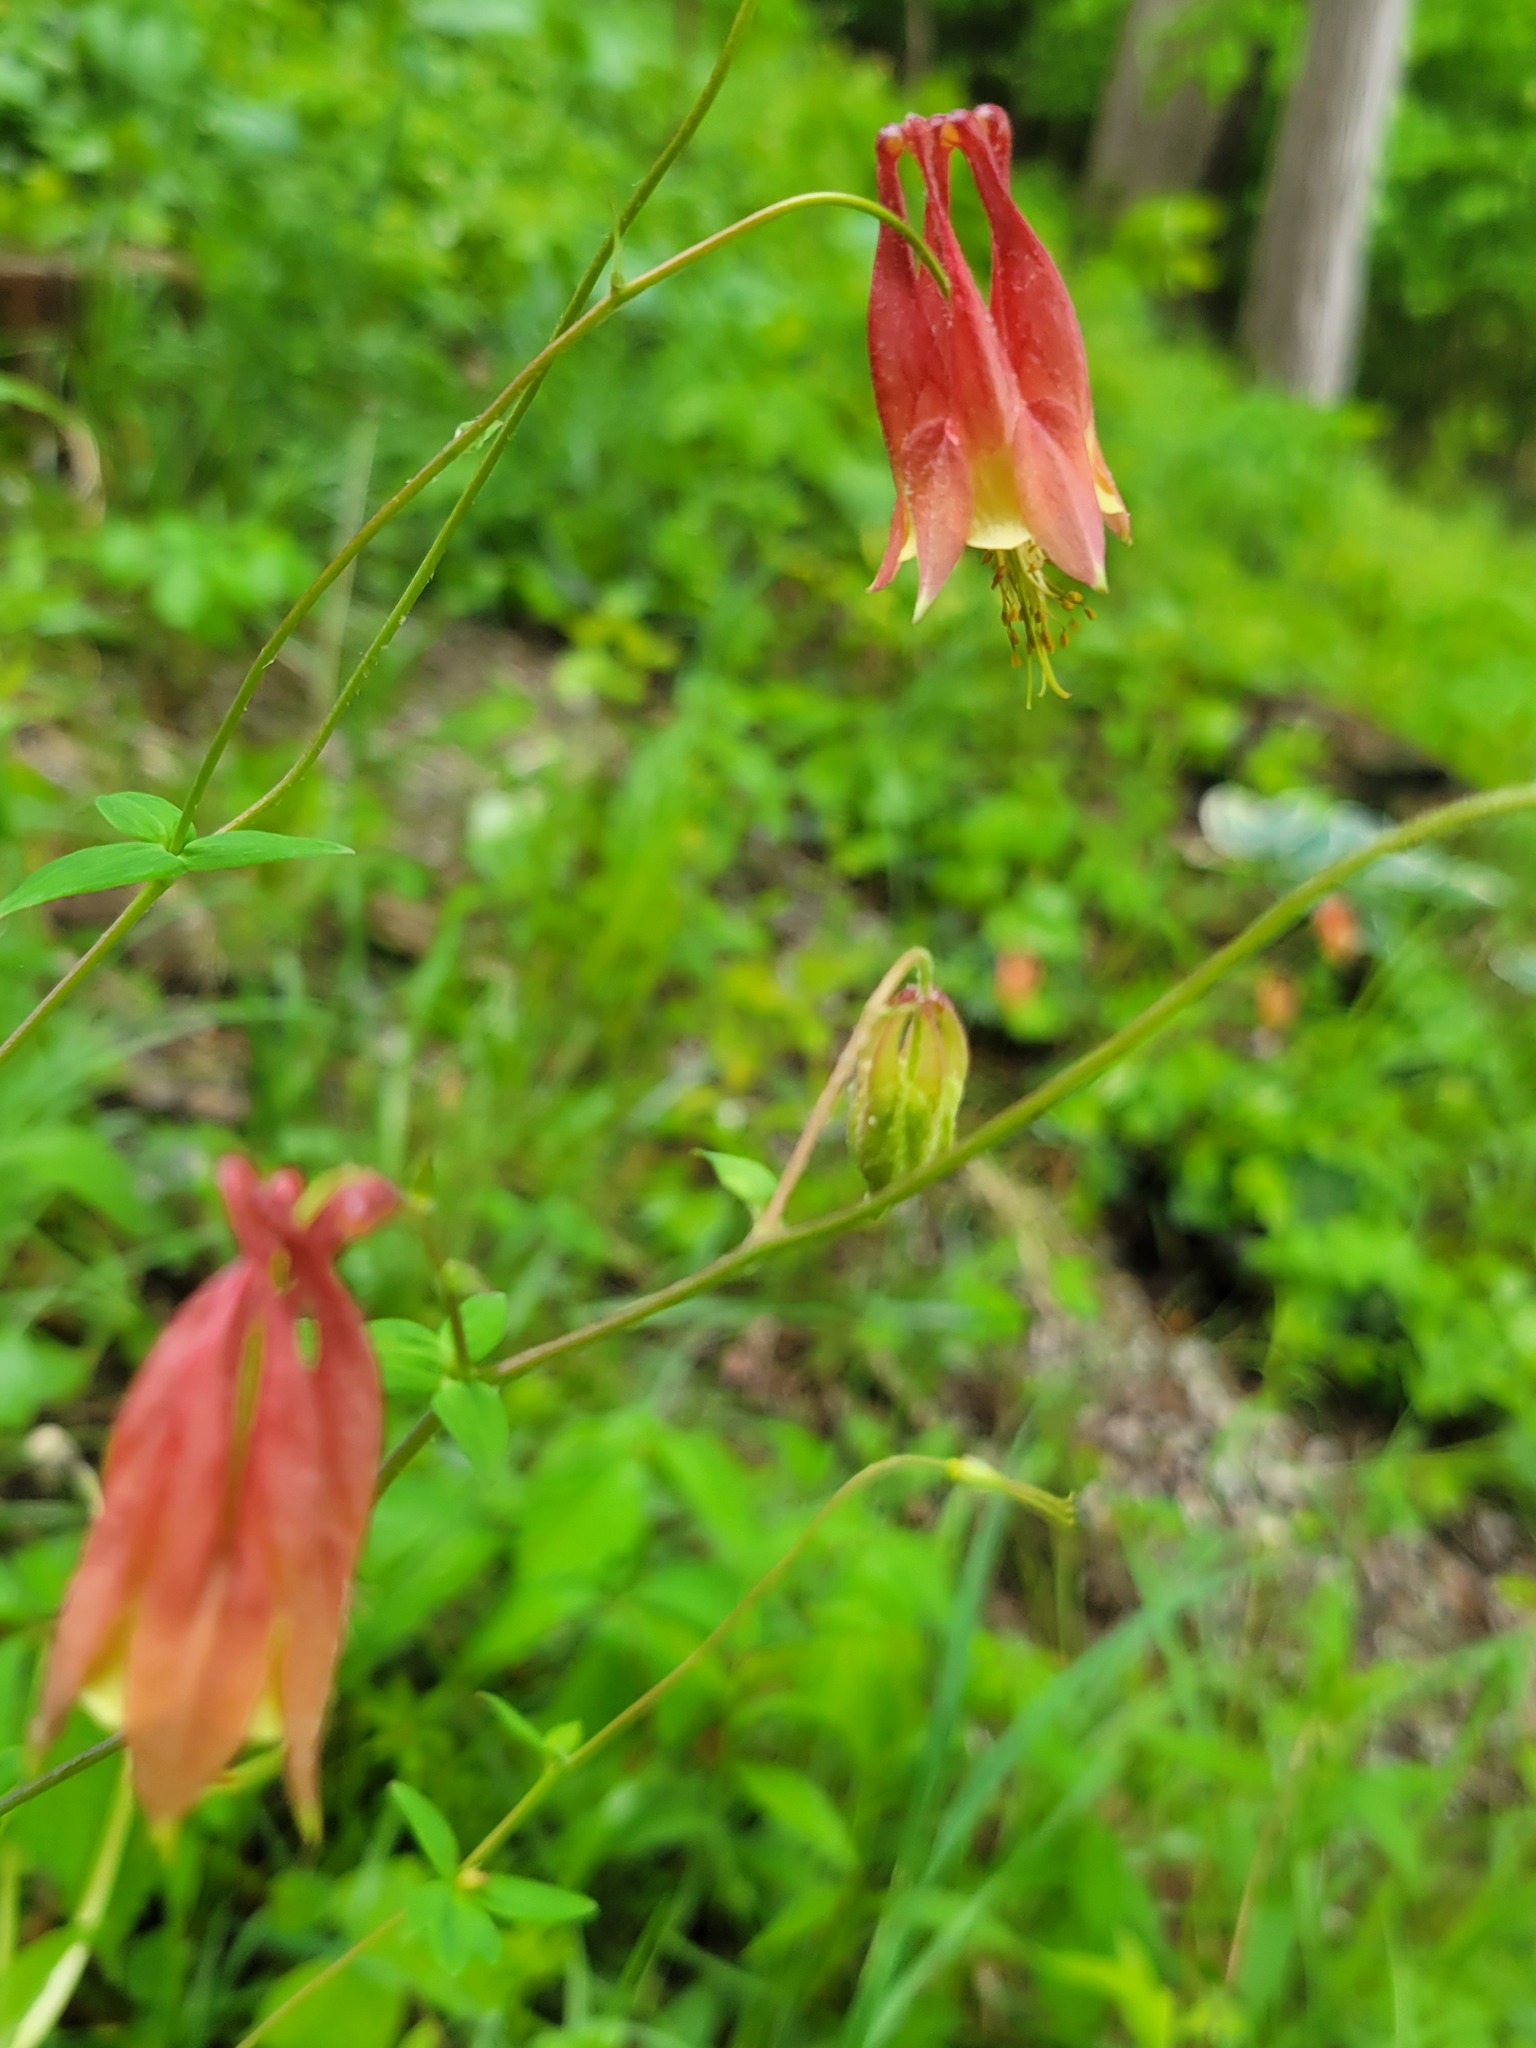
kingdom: Plantae
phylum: Tracheophyta
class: Magnoliopsida
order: Ranunculales
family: Ranunculaceae
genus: Aquilegia
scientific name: Aquilegia canadensis
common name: American columbine
